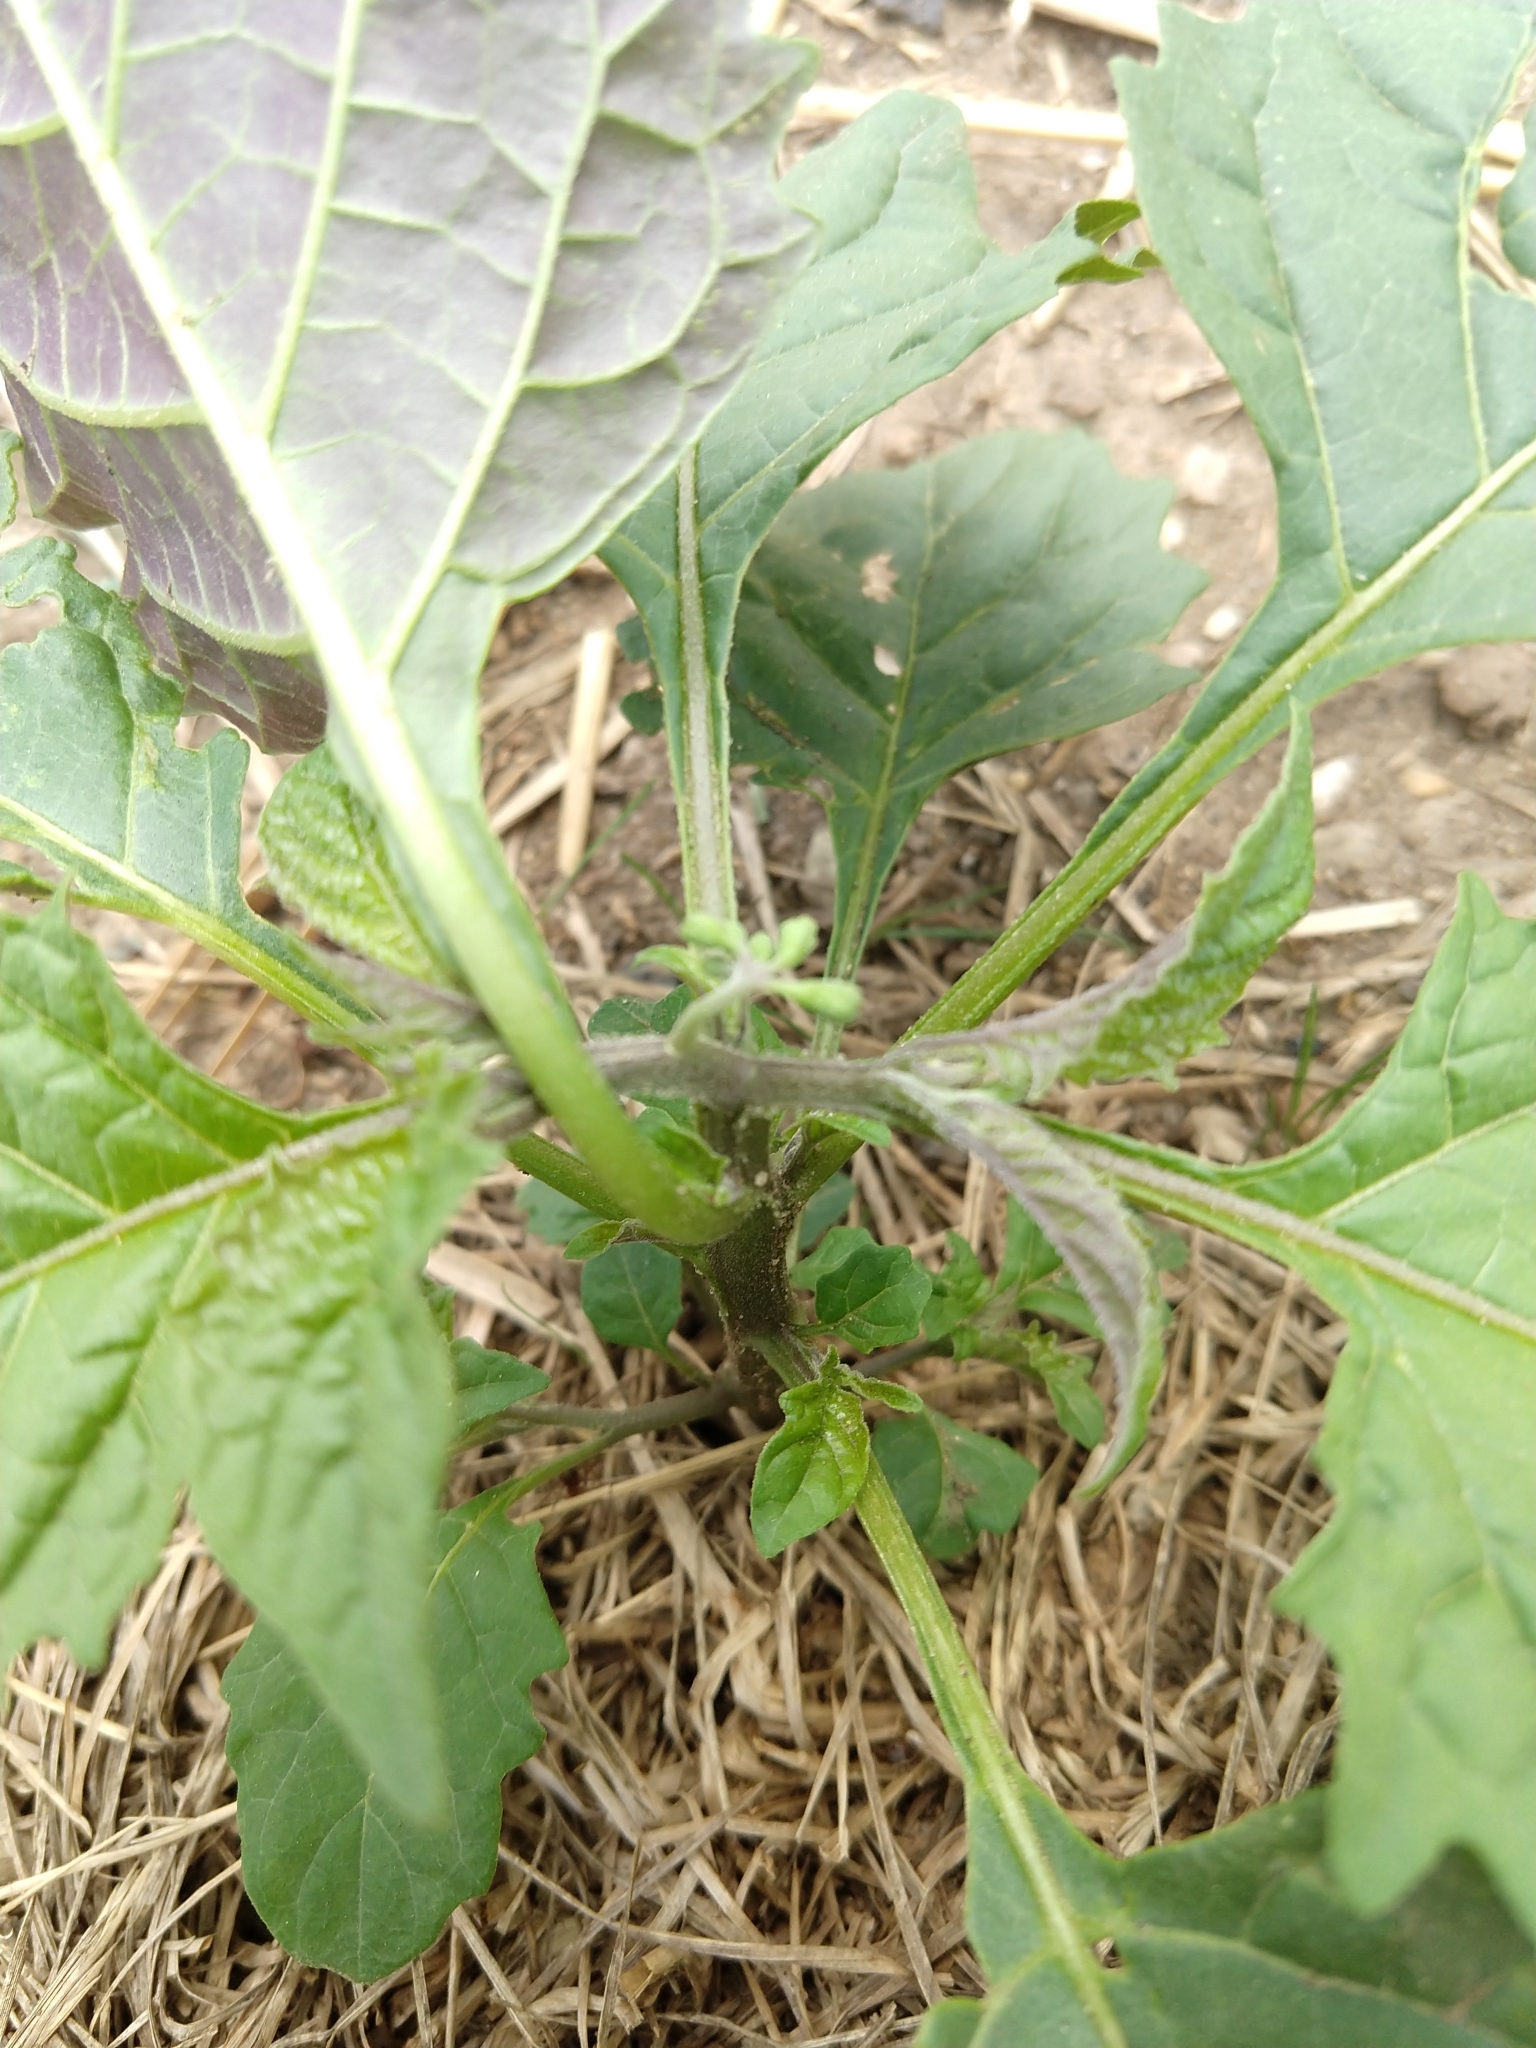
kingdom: Plantae
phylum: Tracheophyta
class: Magnoliopsida
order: Solanales
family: Solanaceae
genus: Solanum
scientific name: Solanum emulans
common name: Eastern black nightshade
